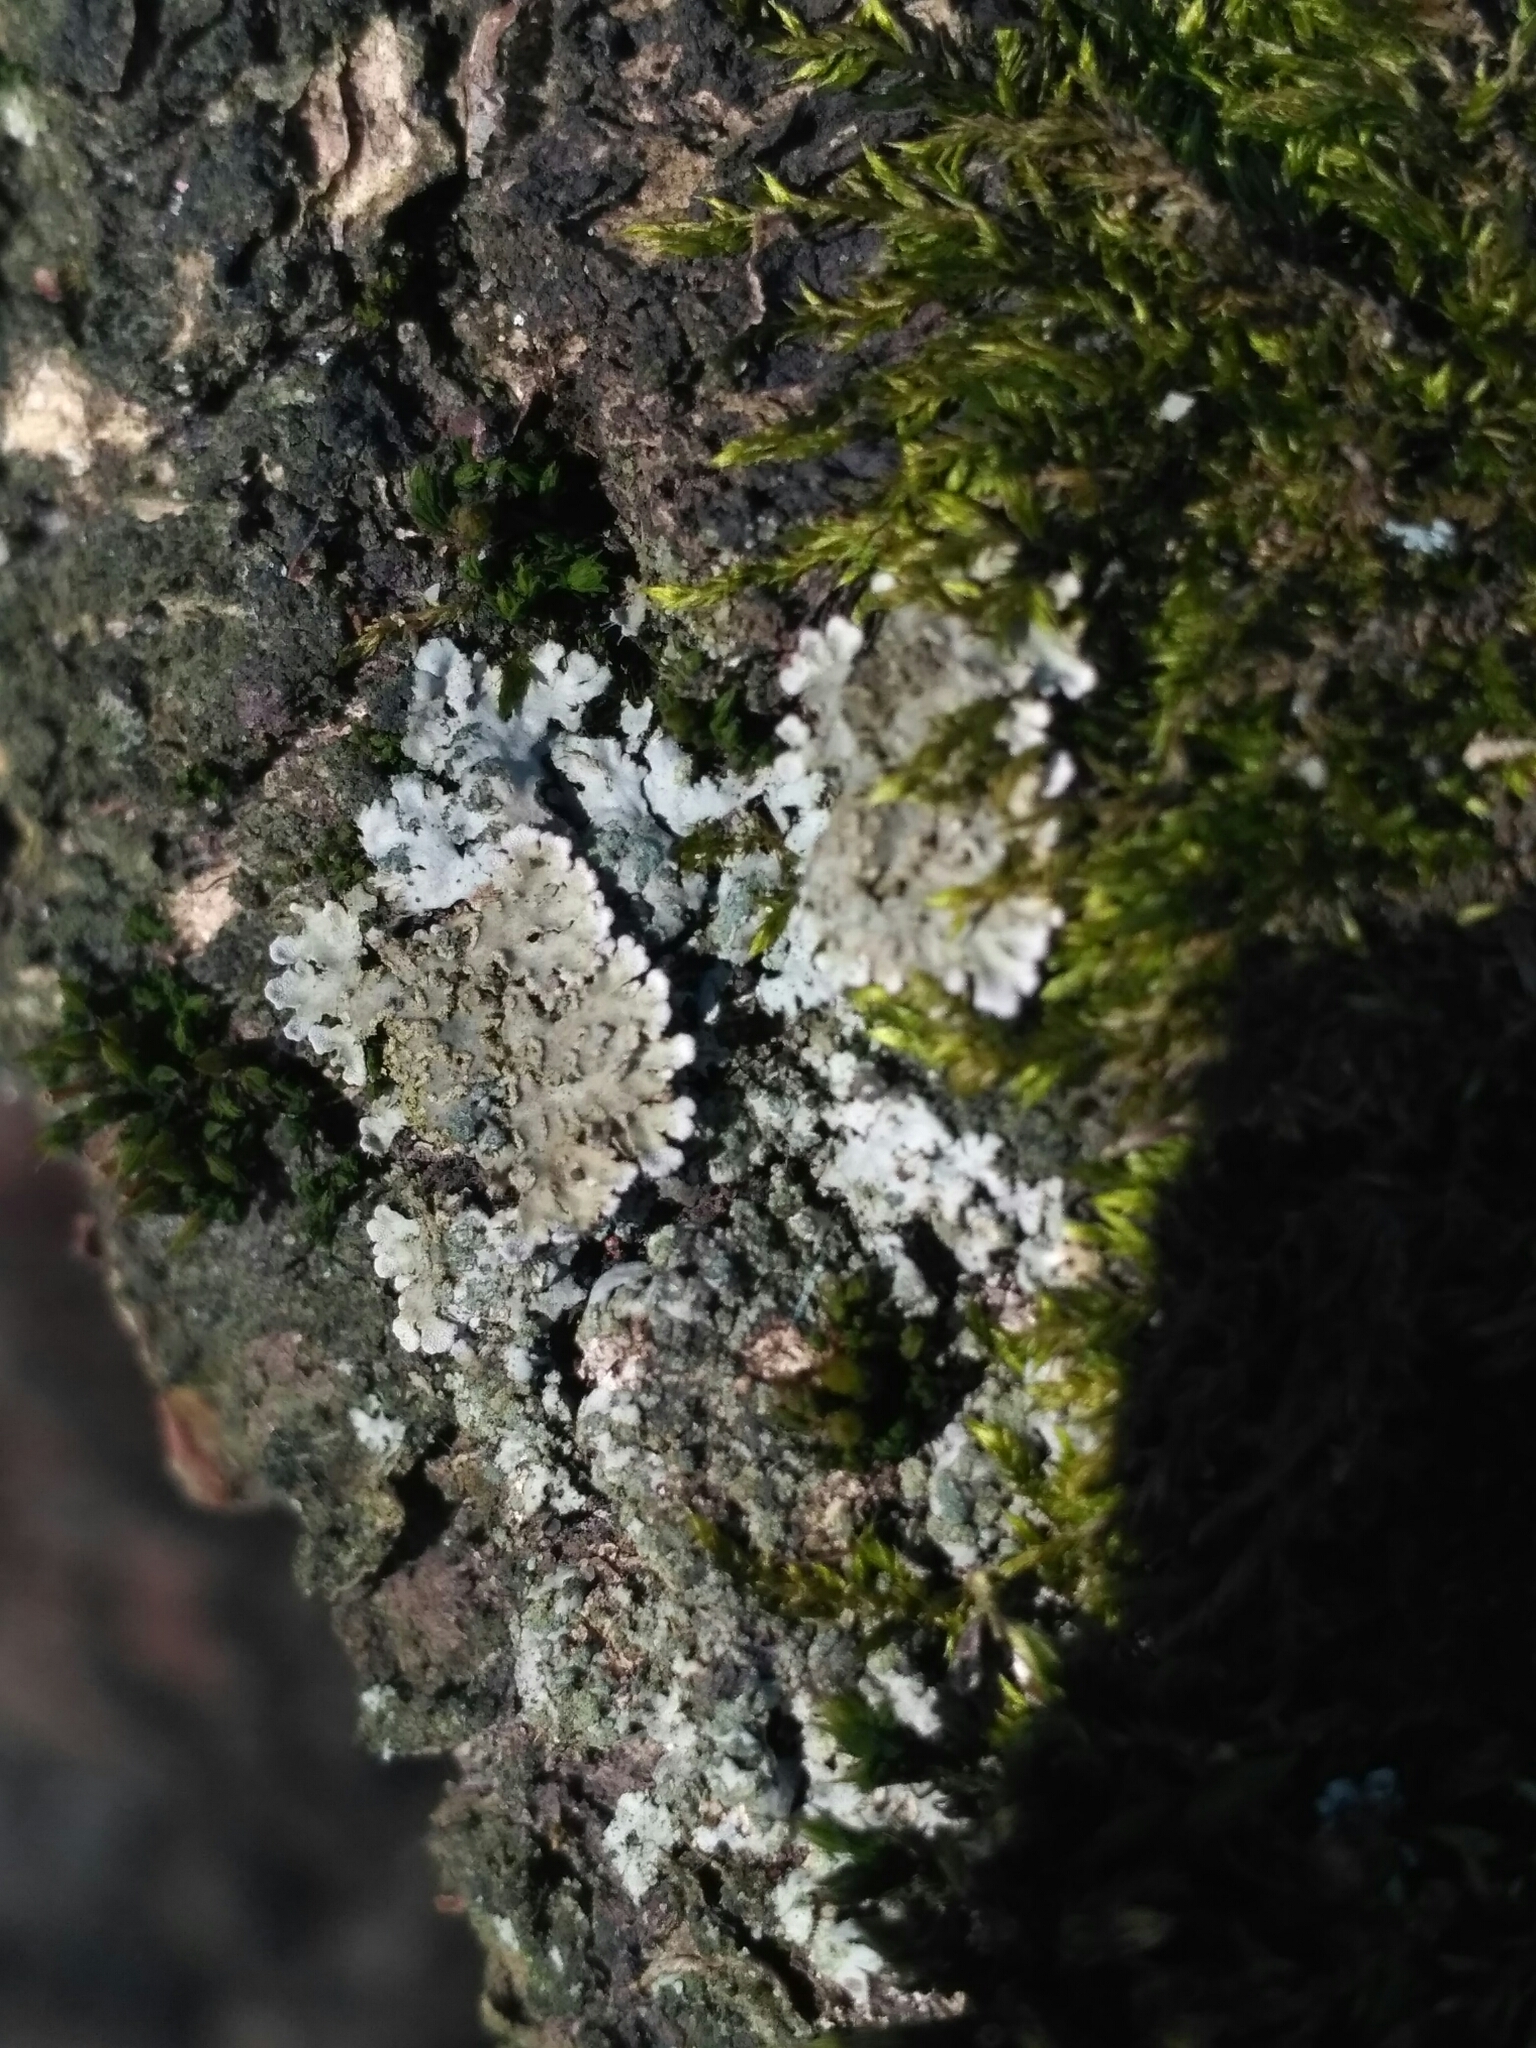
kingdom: Fungi
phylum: Ascomycota
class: Lecanoromycetes
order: Caliciales
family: Physciaceae
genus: Physconia
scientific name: Physconia enteroxantha
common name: Yellow-edged frost lichen
